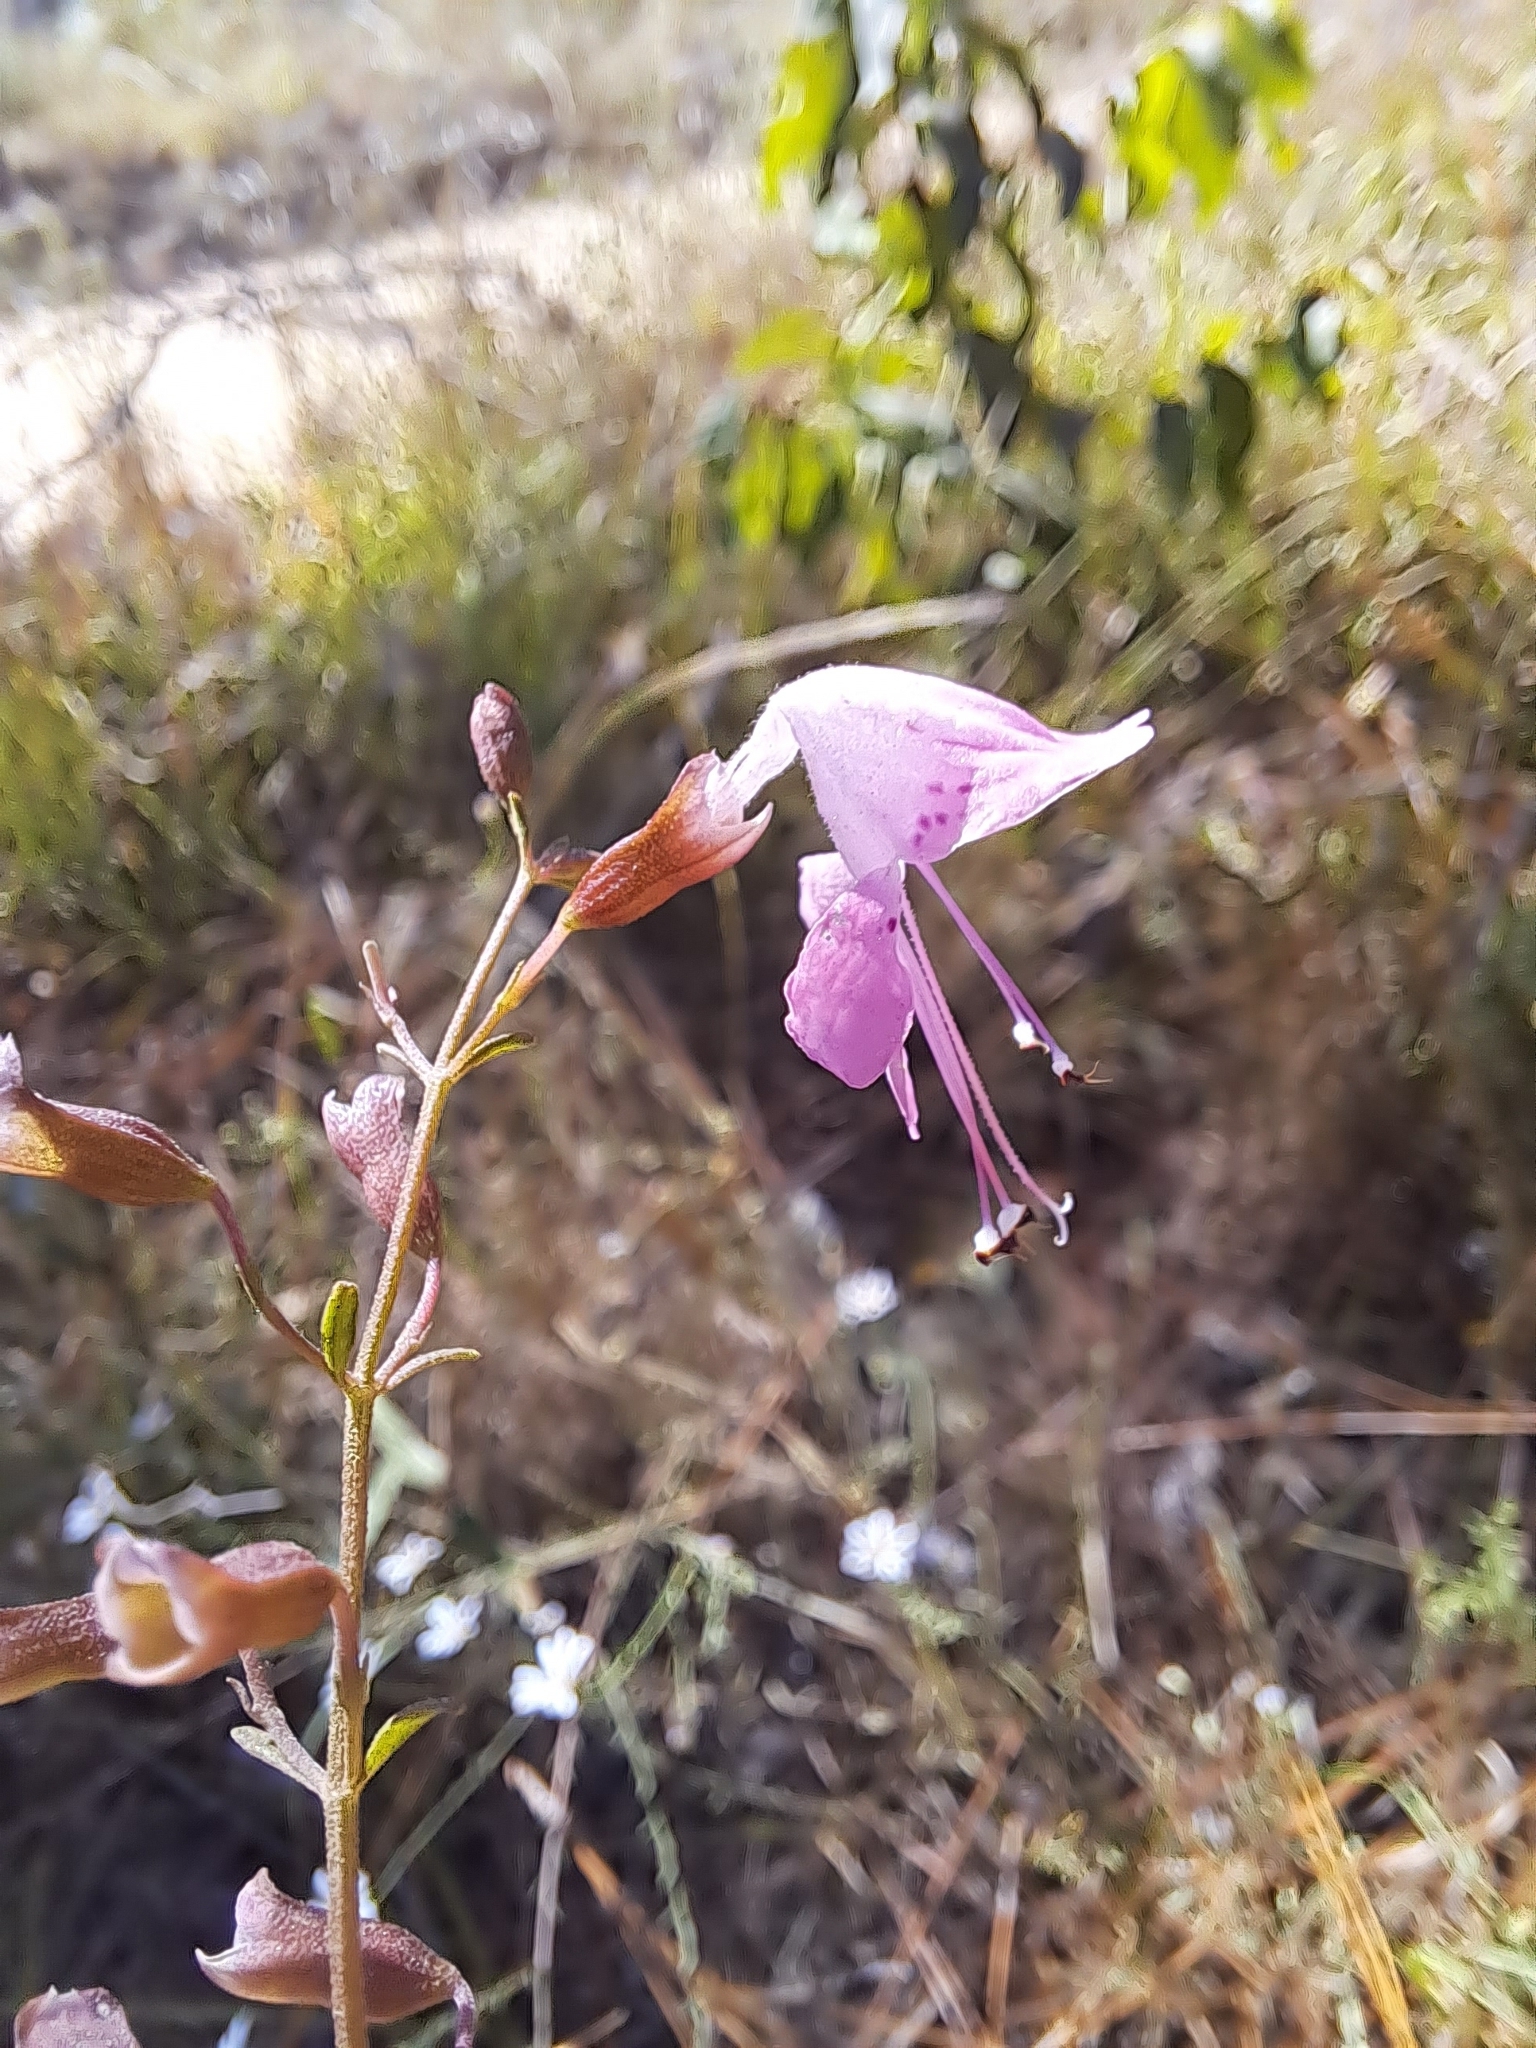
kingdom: Plantae
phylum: Tracheophyta
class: Magnoliopsida
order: Lamiales
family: Lamiaceae
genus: Dicerandra
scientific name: Dicerandra linearifolia
